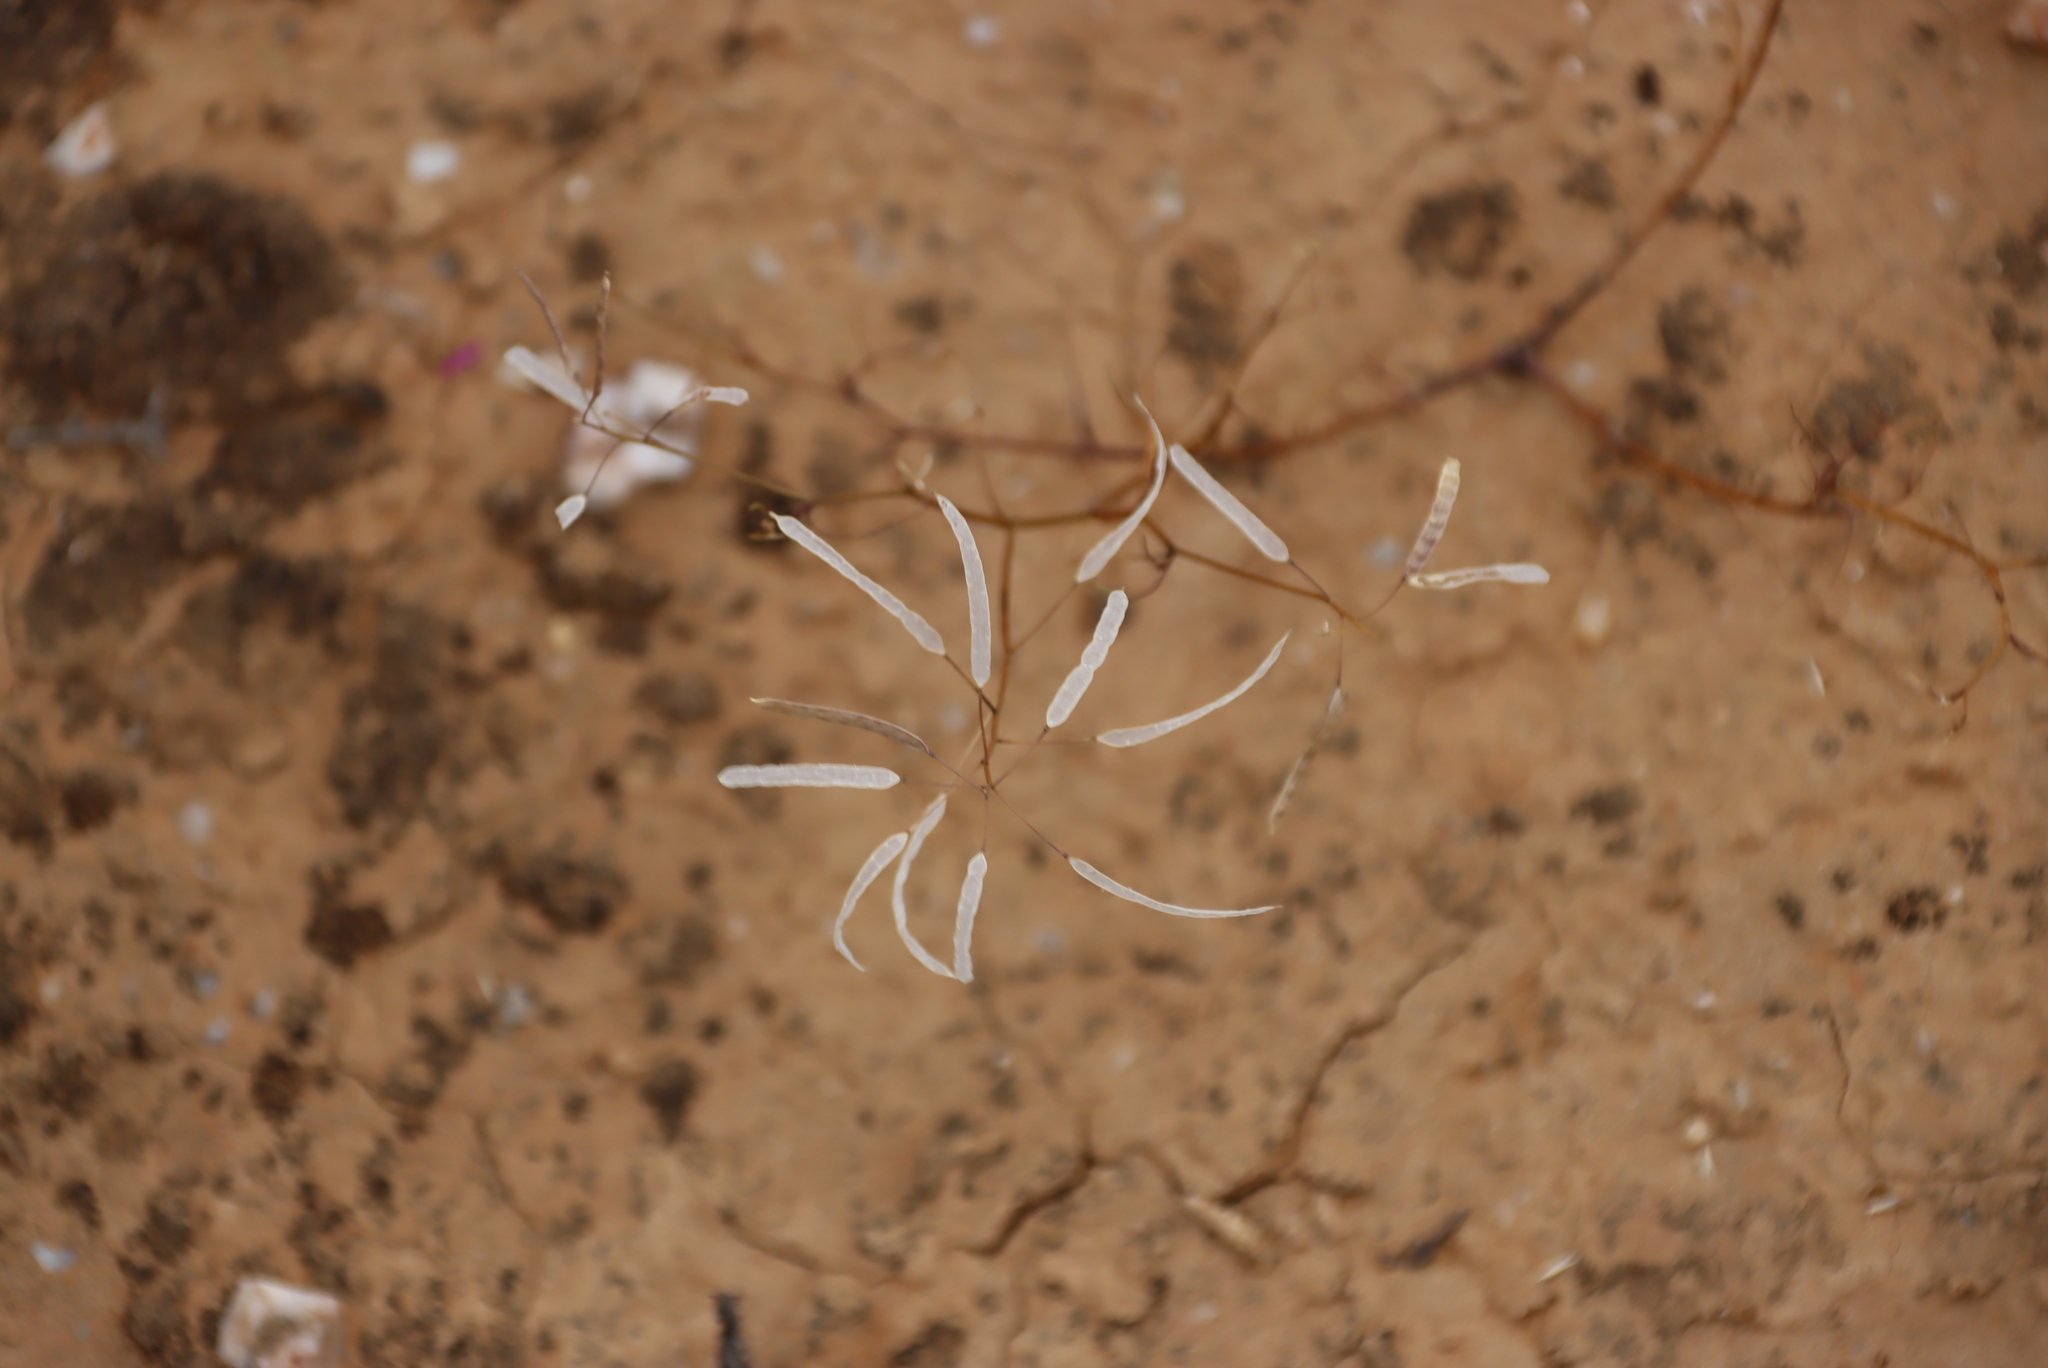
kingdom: Plantae
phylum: Tracheophyta
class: Magnoliopsida
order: Brassicales
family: Brassicaceae
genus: Heliophila
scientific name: Heliophila variabilis
